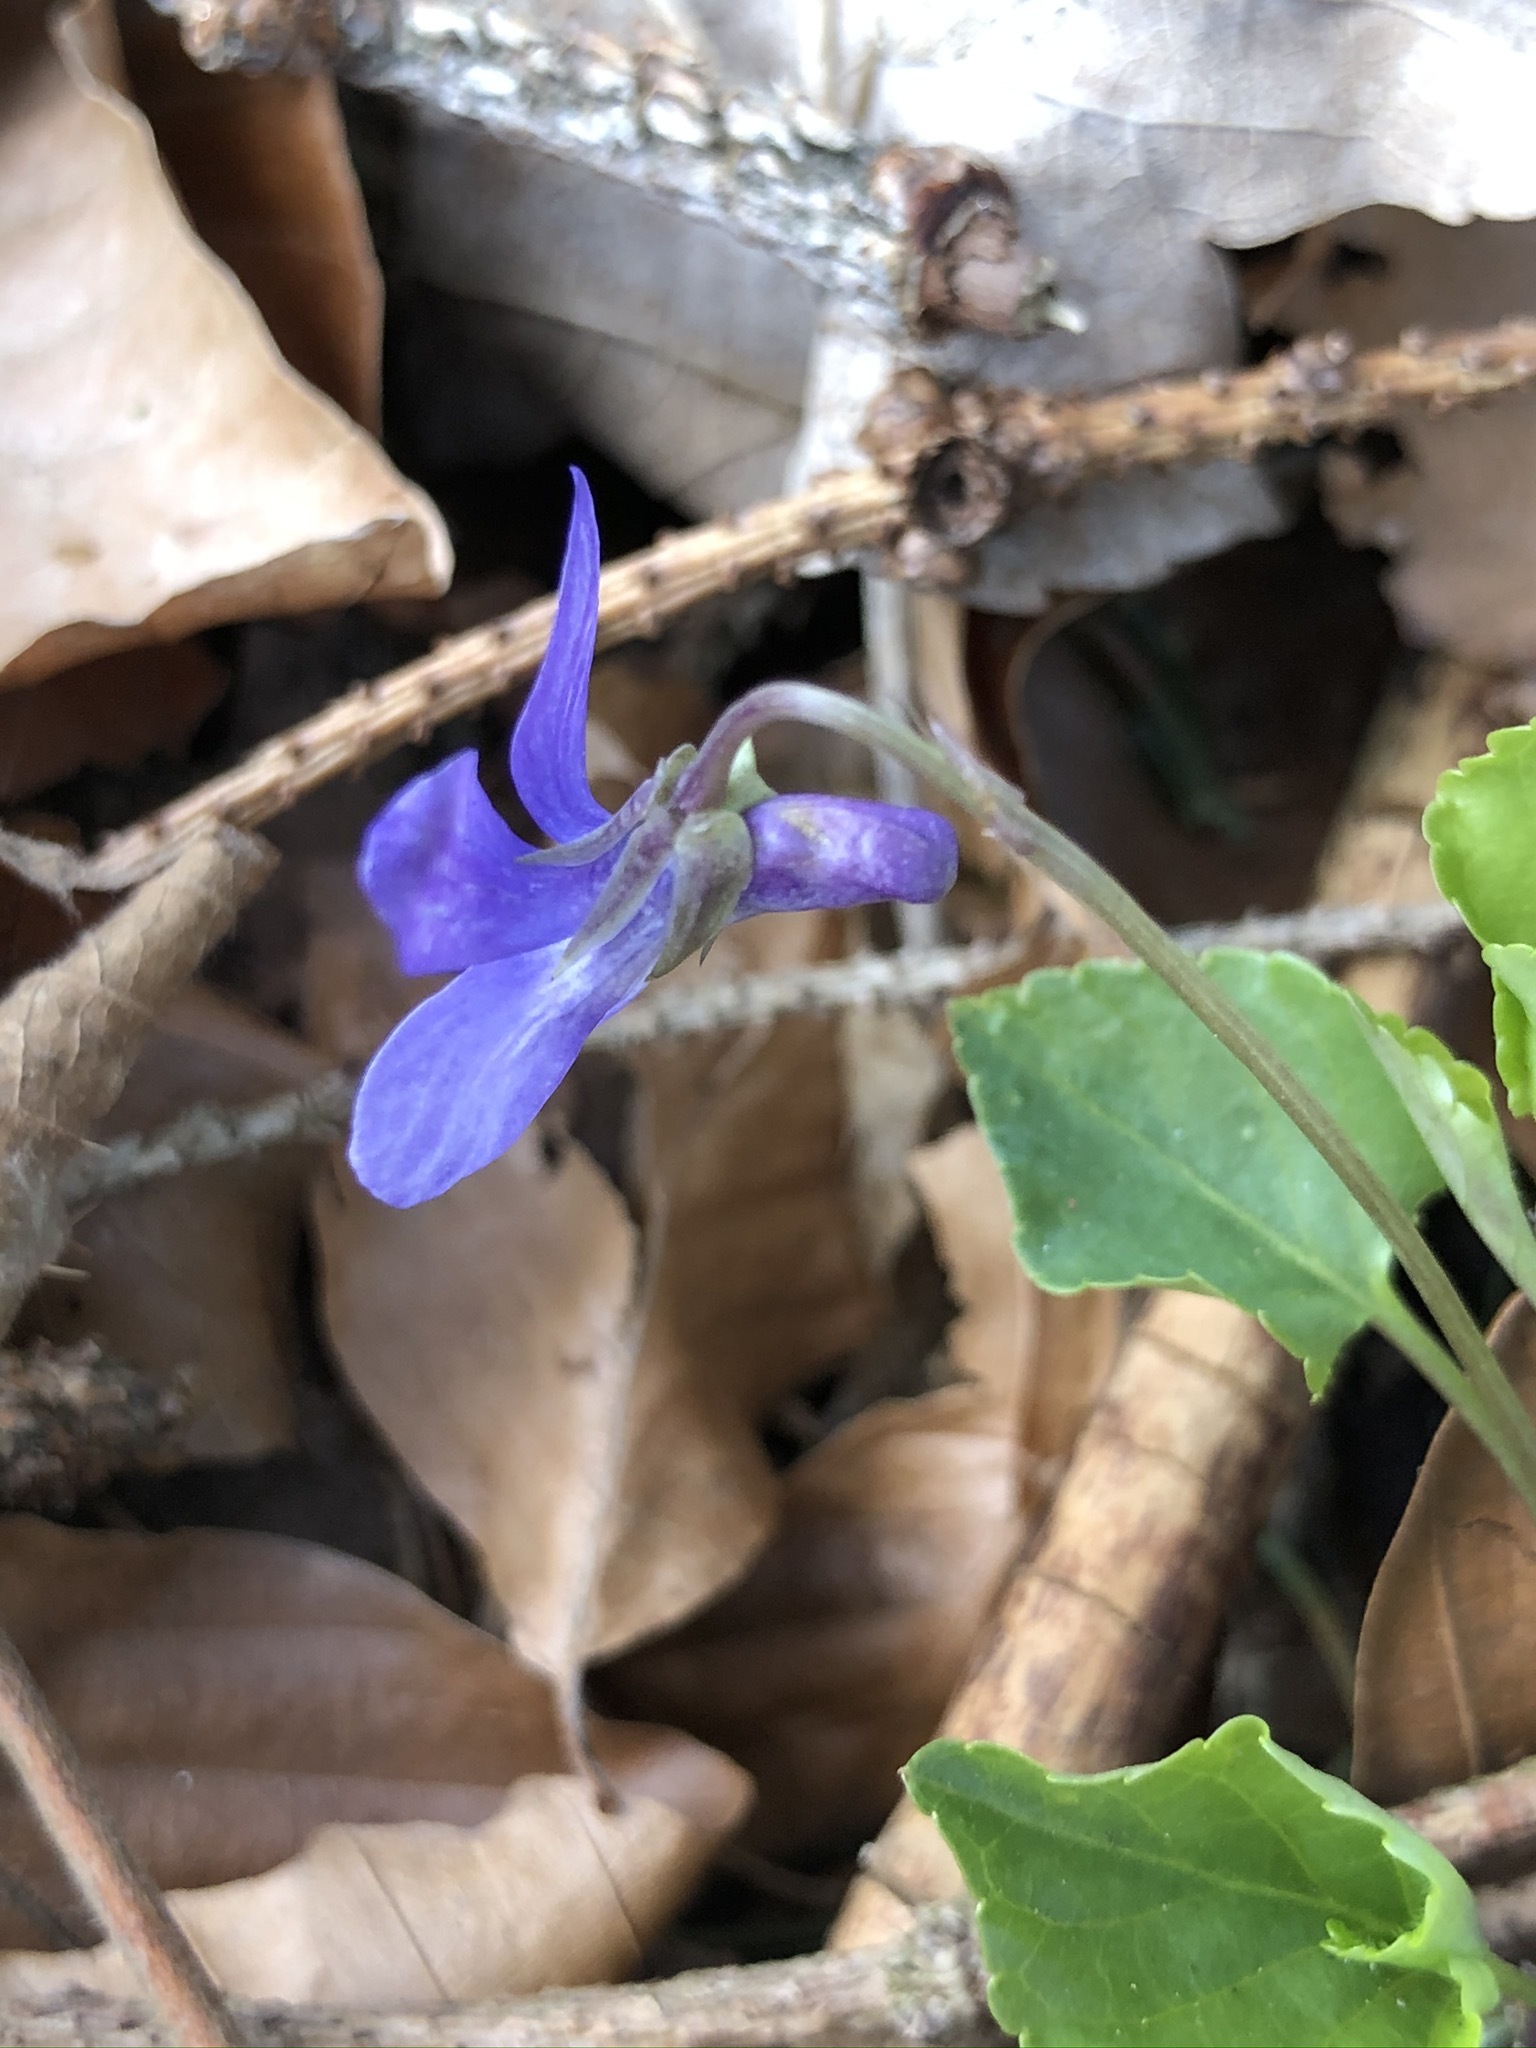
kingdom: Plantae
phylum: Tracheophyta
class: Magnoliopsida
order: Malpighiales
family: Violaceae
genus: Viola
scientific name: Viola reichenbachiana
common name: Early dog-violet
